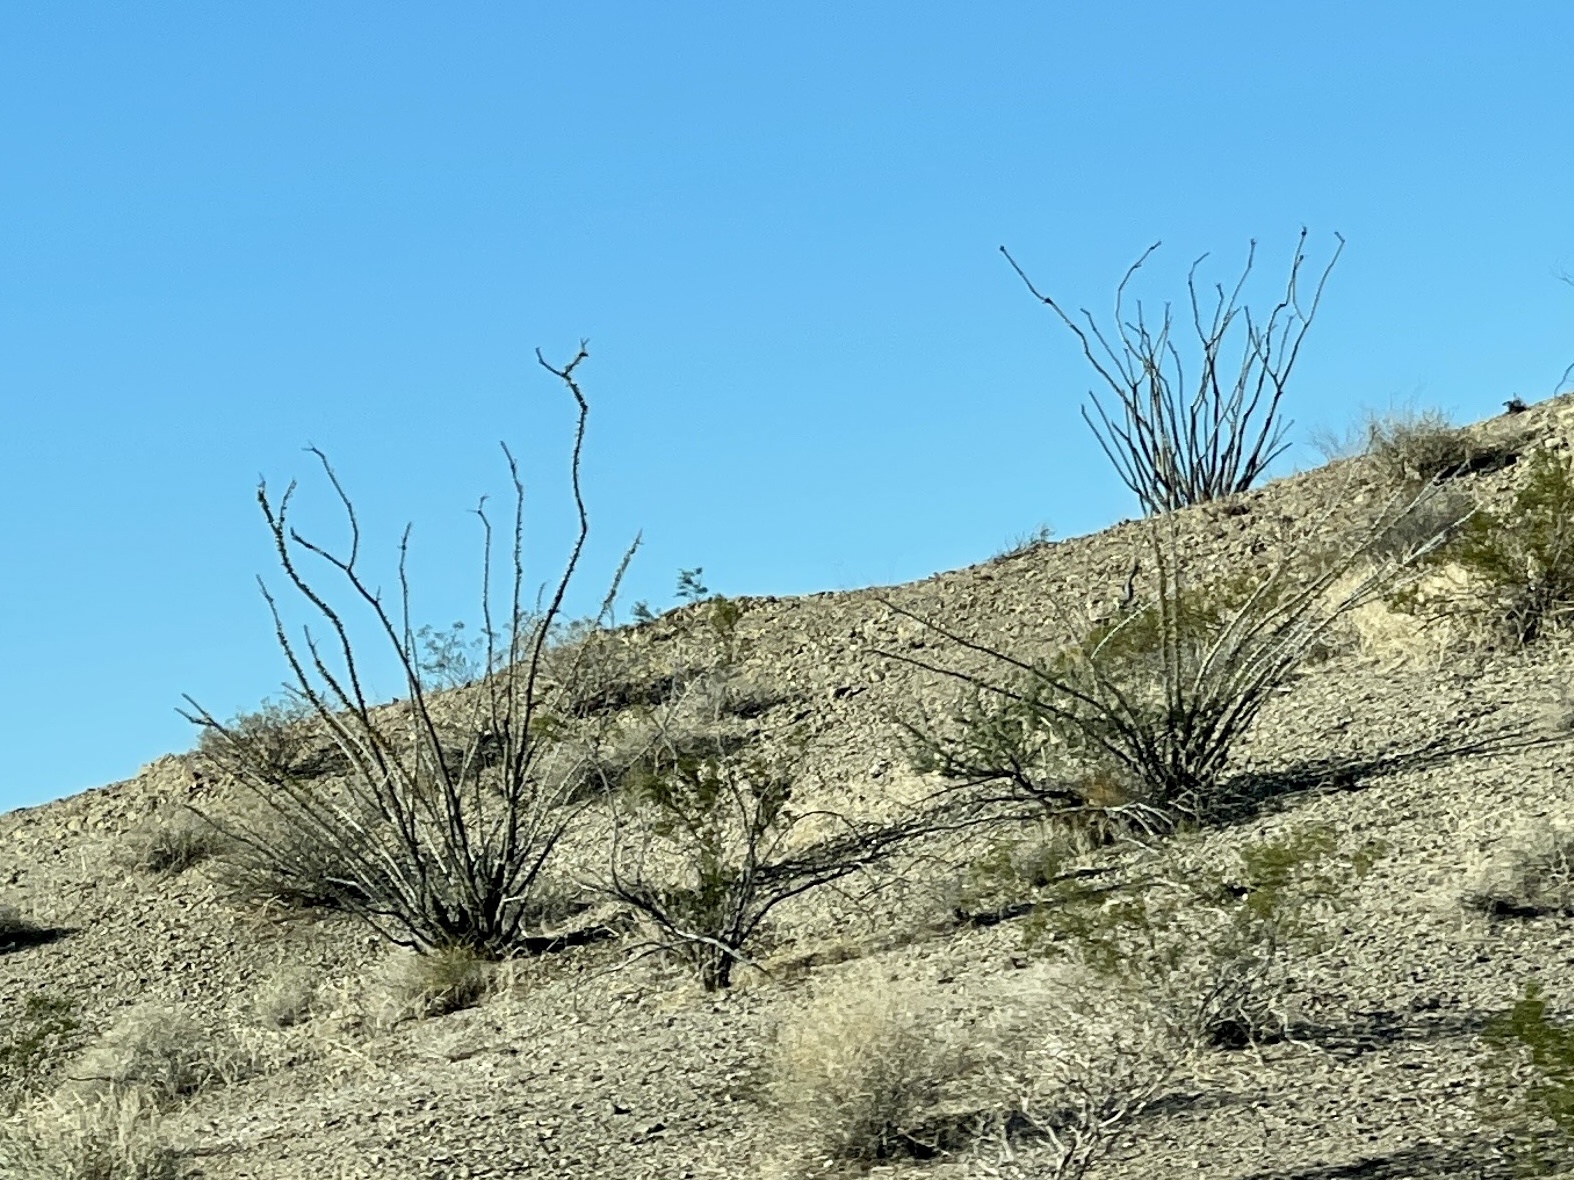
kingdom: Plantae
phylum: Tracheophyta
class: Magnoliopsida
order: Ericales
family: Fouquieriaceae
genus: Fouquieria
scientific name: Fouquieria splendens
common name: Vine-cactus
